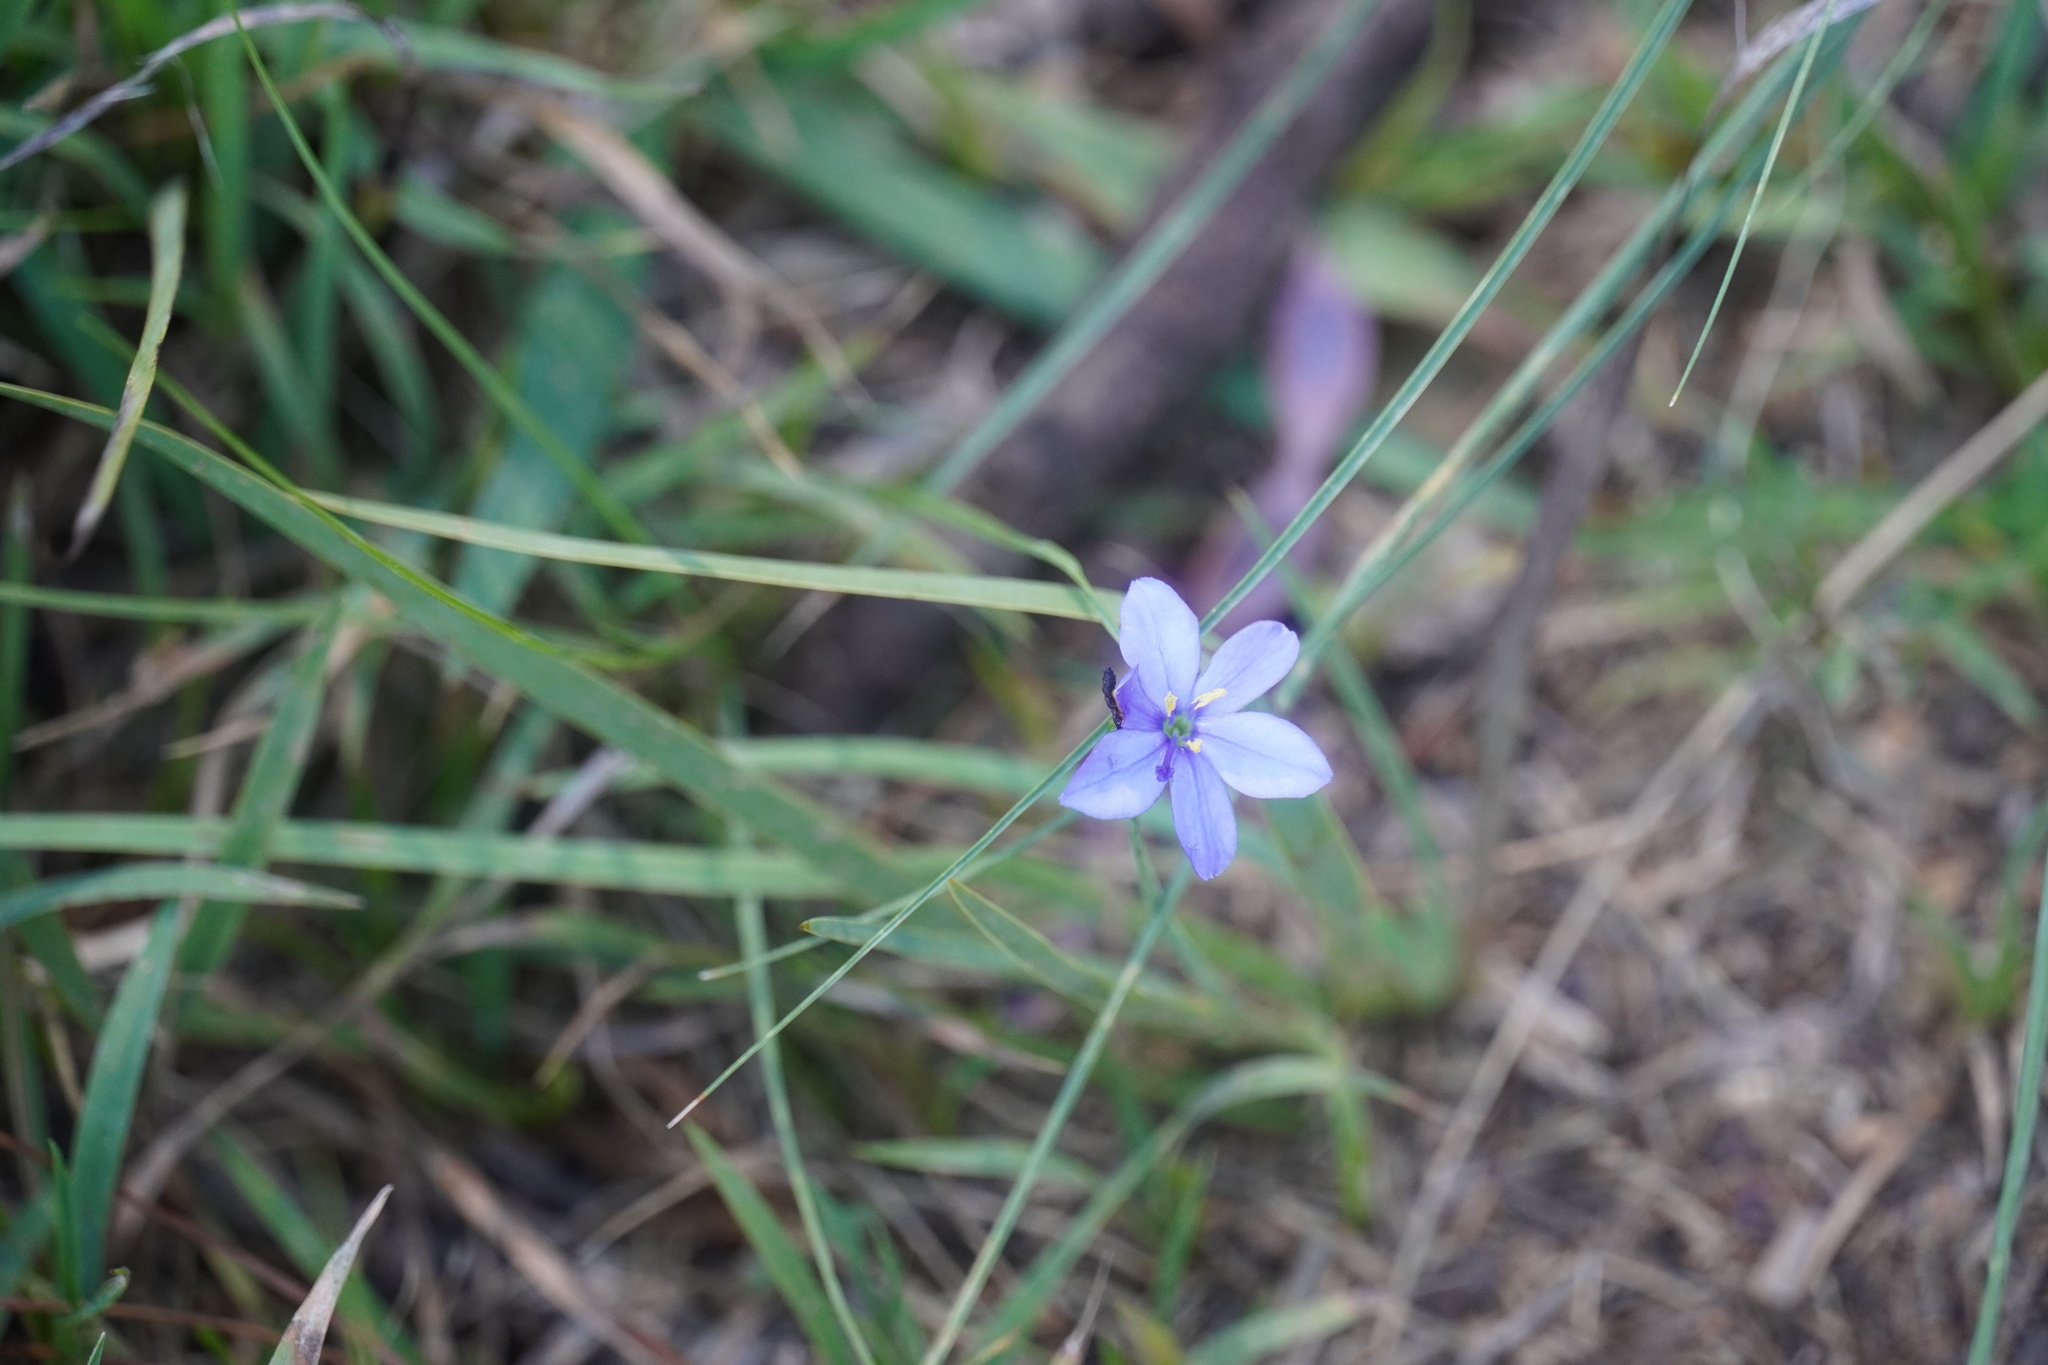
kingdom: Plantae
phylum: Tracheophyta
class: Liliopsida
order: Asparagales
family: Iridaceae
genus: Aristea
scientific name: Aristea abyssinica
